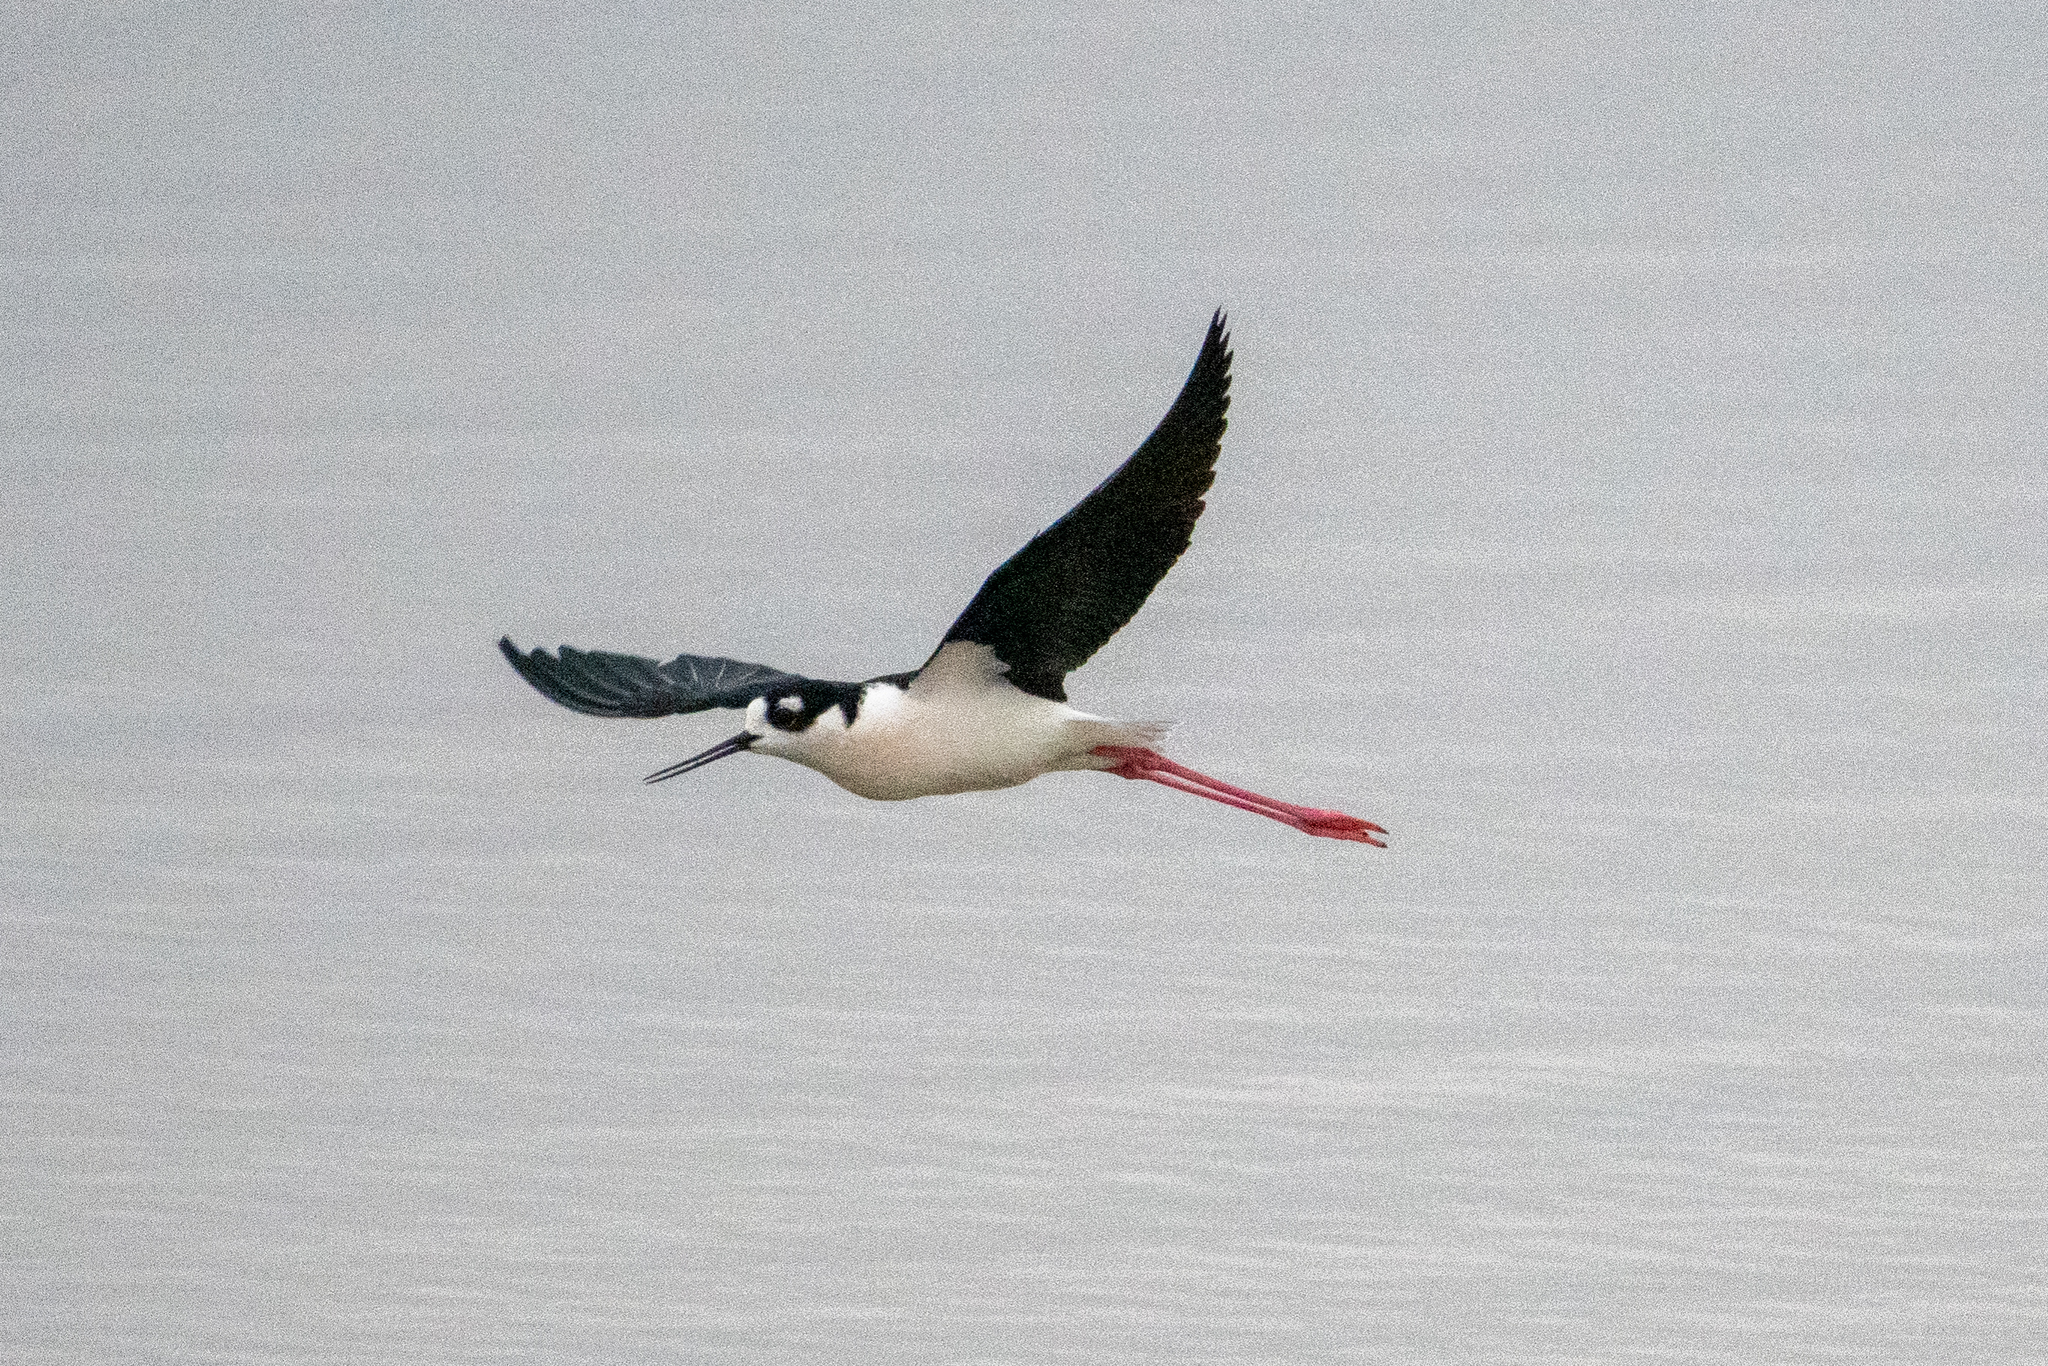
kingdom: Animalia
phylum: Chordata
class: Aves
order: Charadriiformes
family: Recurvirostridae
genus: Himantopus
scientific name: Himantopus mexicanus
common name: Black-necked stilt
